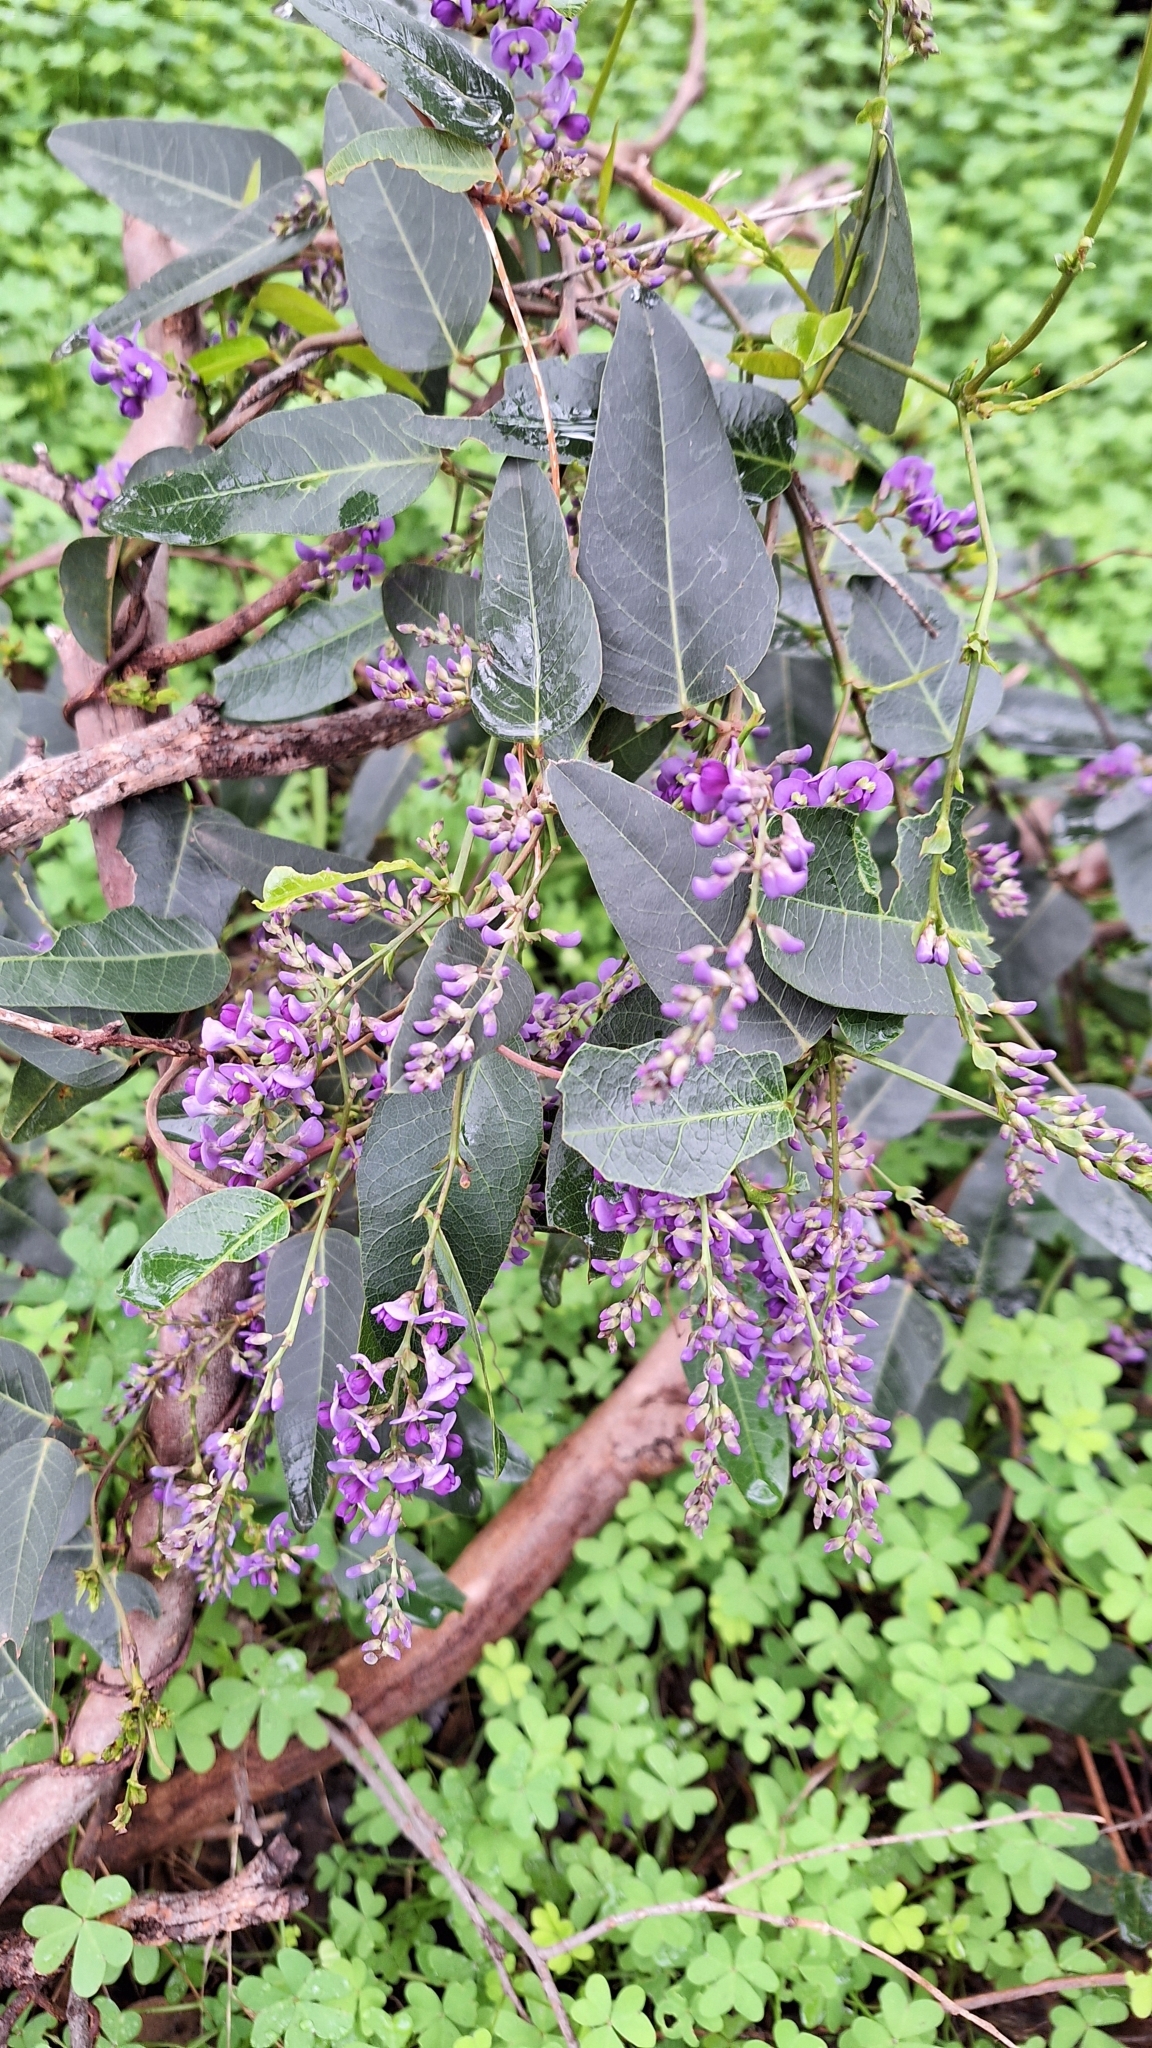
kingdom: Plantae
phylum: Tracheophyta
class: Magnoliopsida
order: Fabales
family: Fabaceae
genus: Hardenbergia
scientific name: Hardenbergia violacea
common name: Coral-pea
